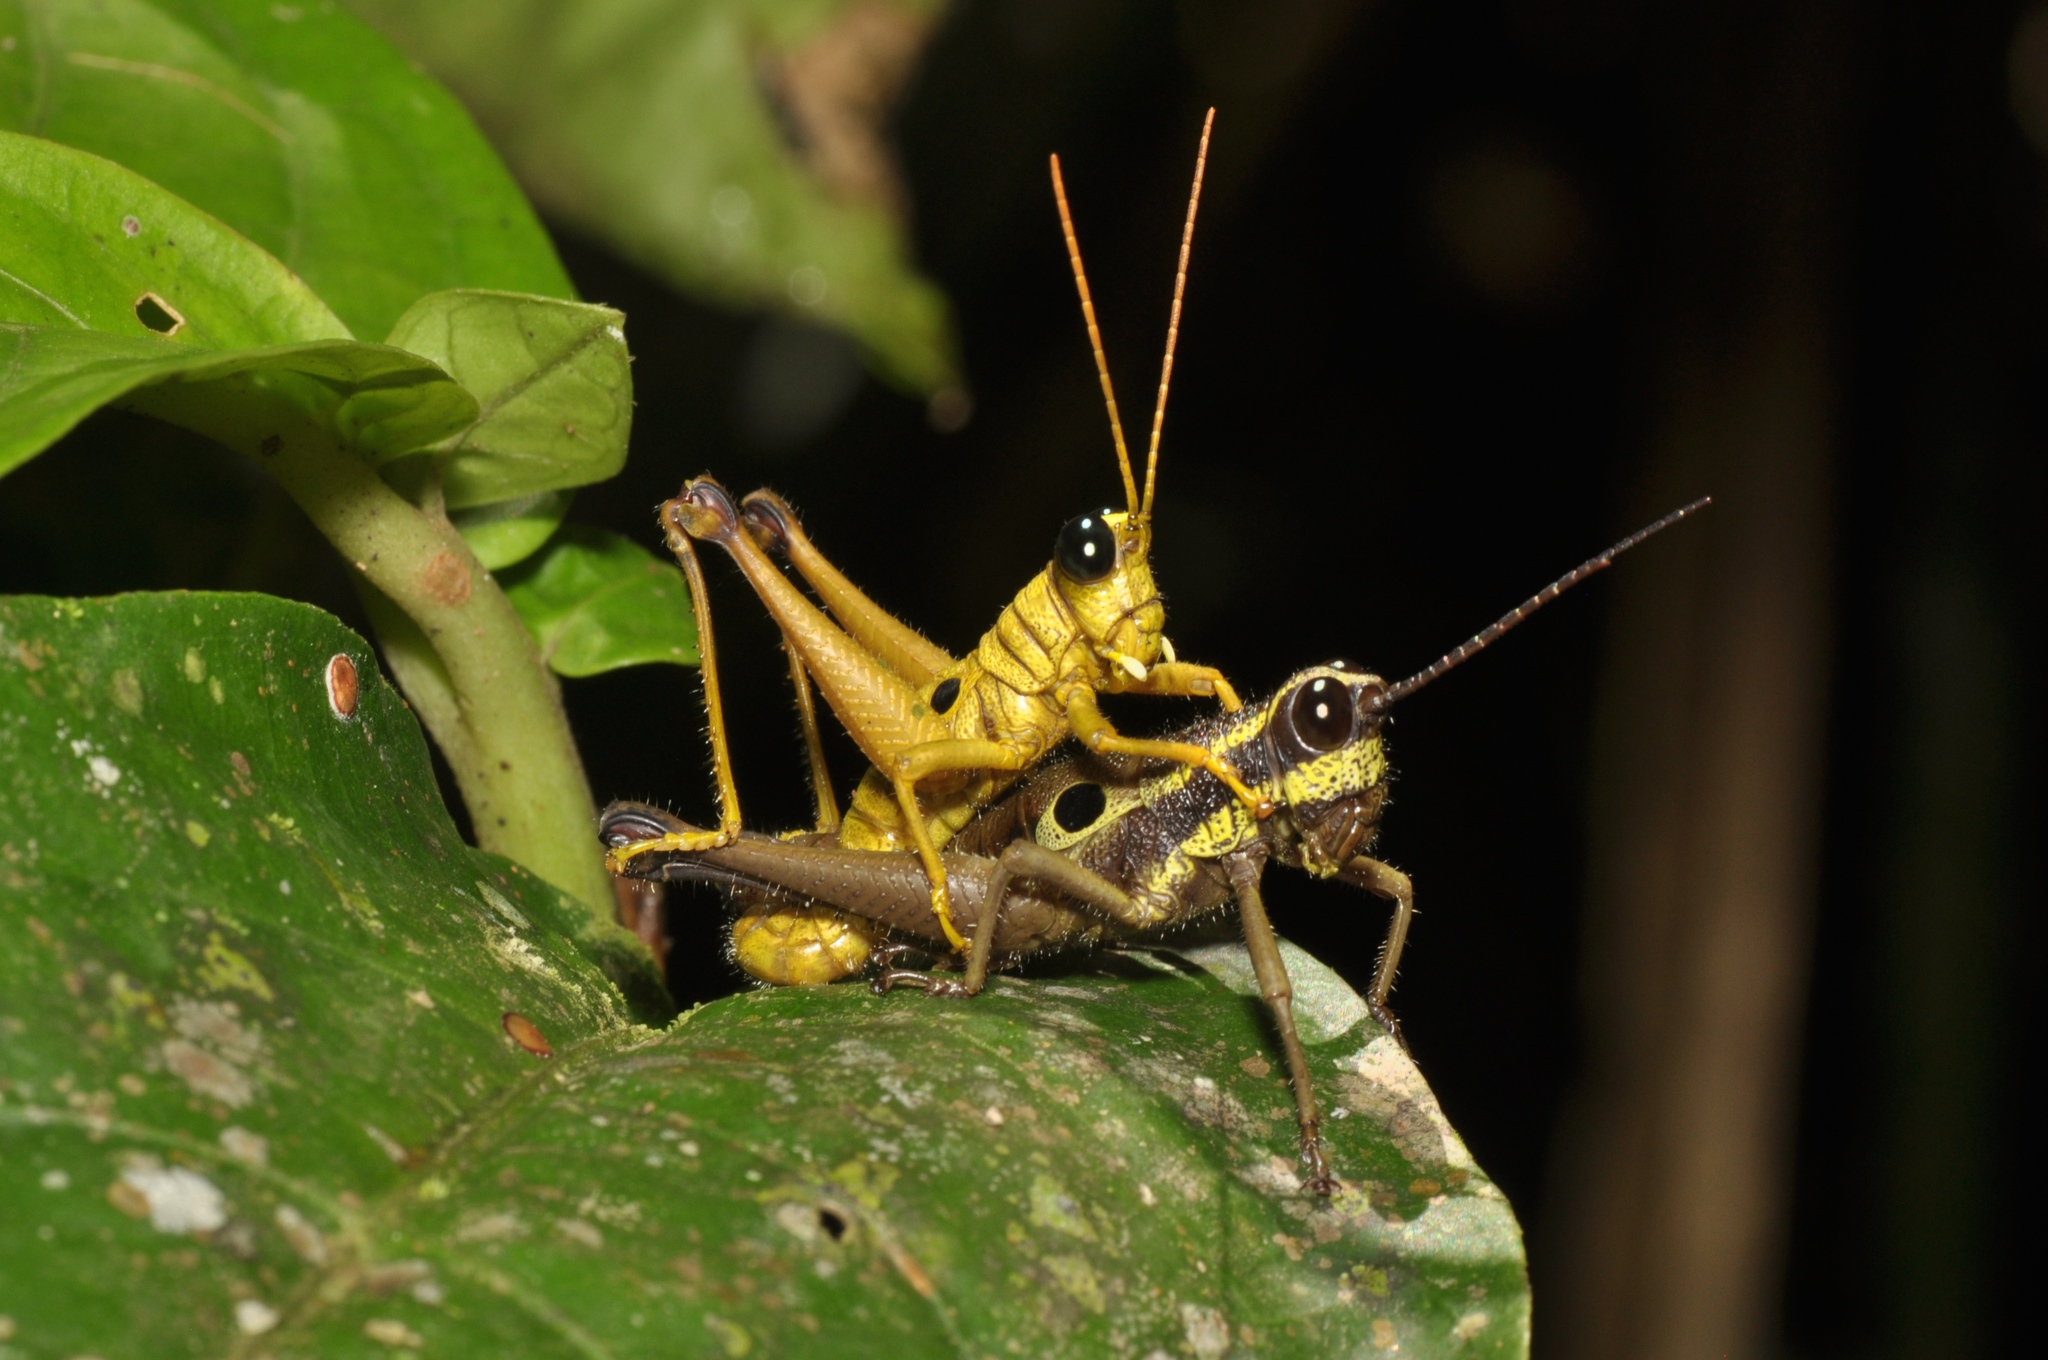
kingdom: Animalia
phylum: Arthropoda
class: Insecta
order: Orthoptera
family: Acrididae
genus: Ommatolampis
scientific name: Ommatolampis perspicillata
